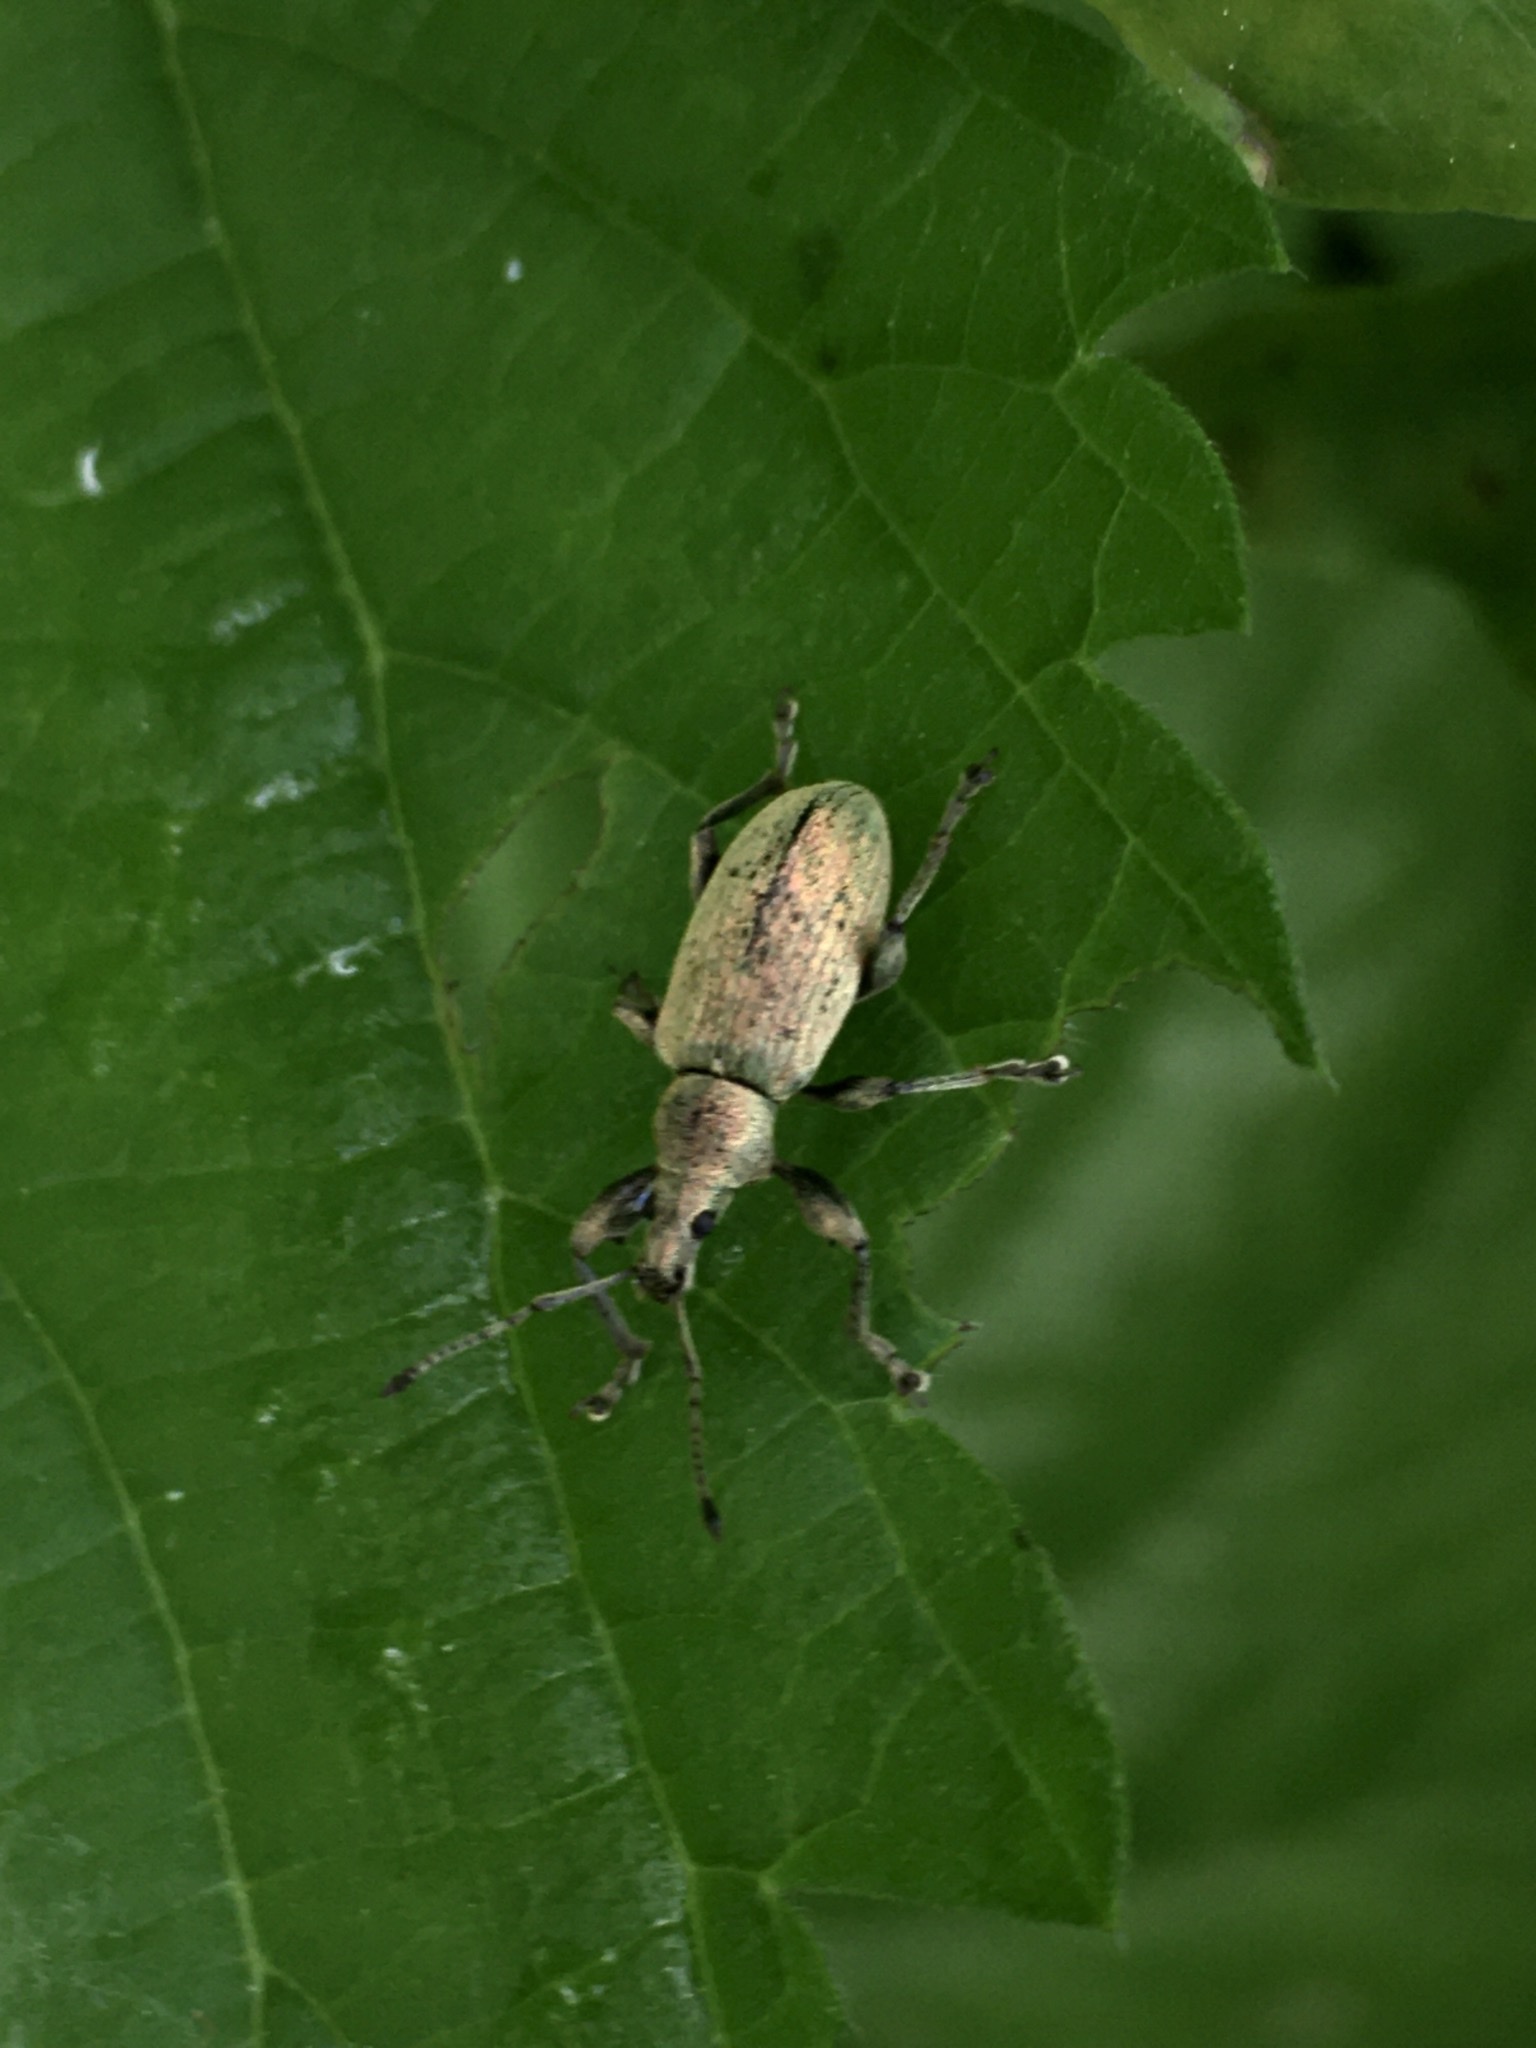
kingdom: Animalia
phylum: Arthropoda
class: Insecta
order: Coleoptera
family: Curculionidae
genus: Phyllobius
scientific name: Phyllobius pomaceus
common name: Green nettle weevil
